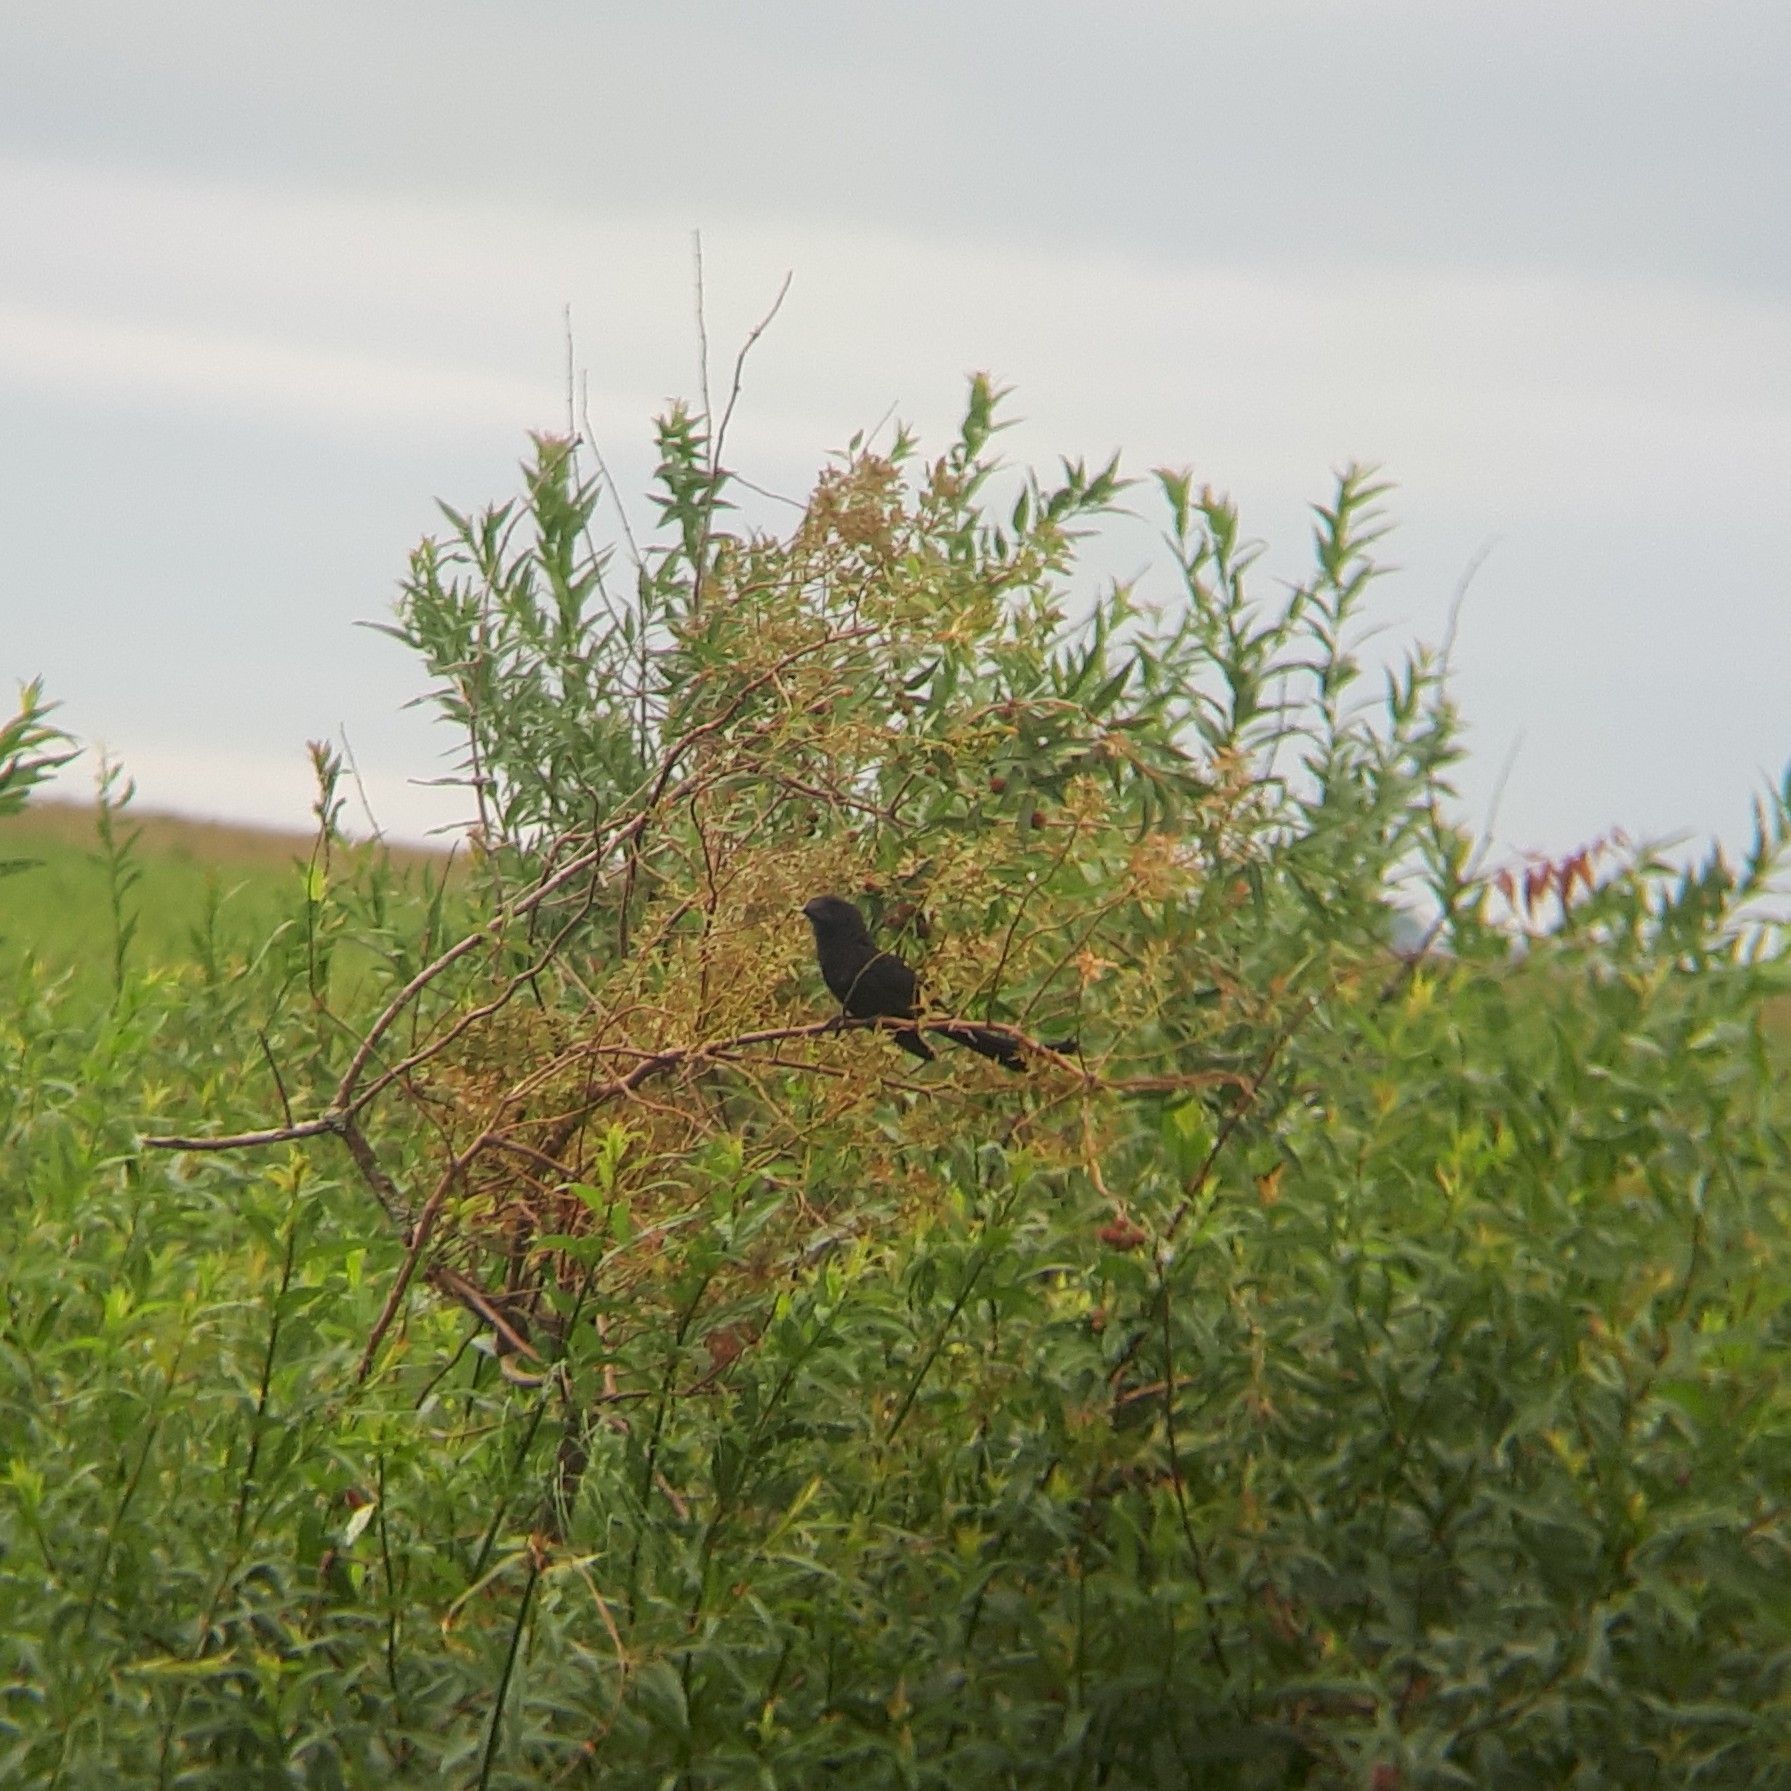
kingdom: Animalia
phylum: Chordata
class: Aves
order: Cuculiformes
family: Cuculidae
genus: Crotophaga
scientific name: Crotophaga ani
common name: Smooth-billed ani
